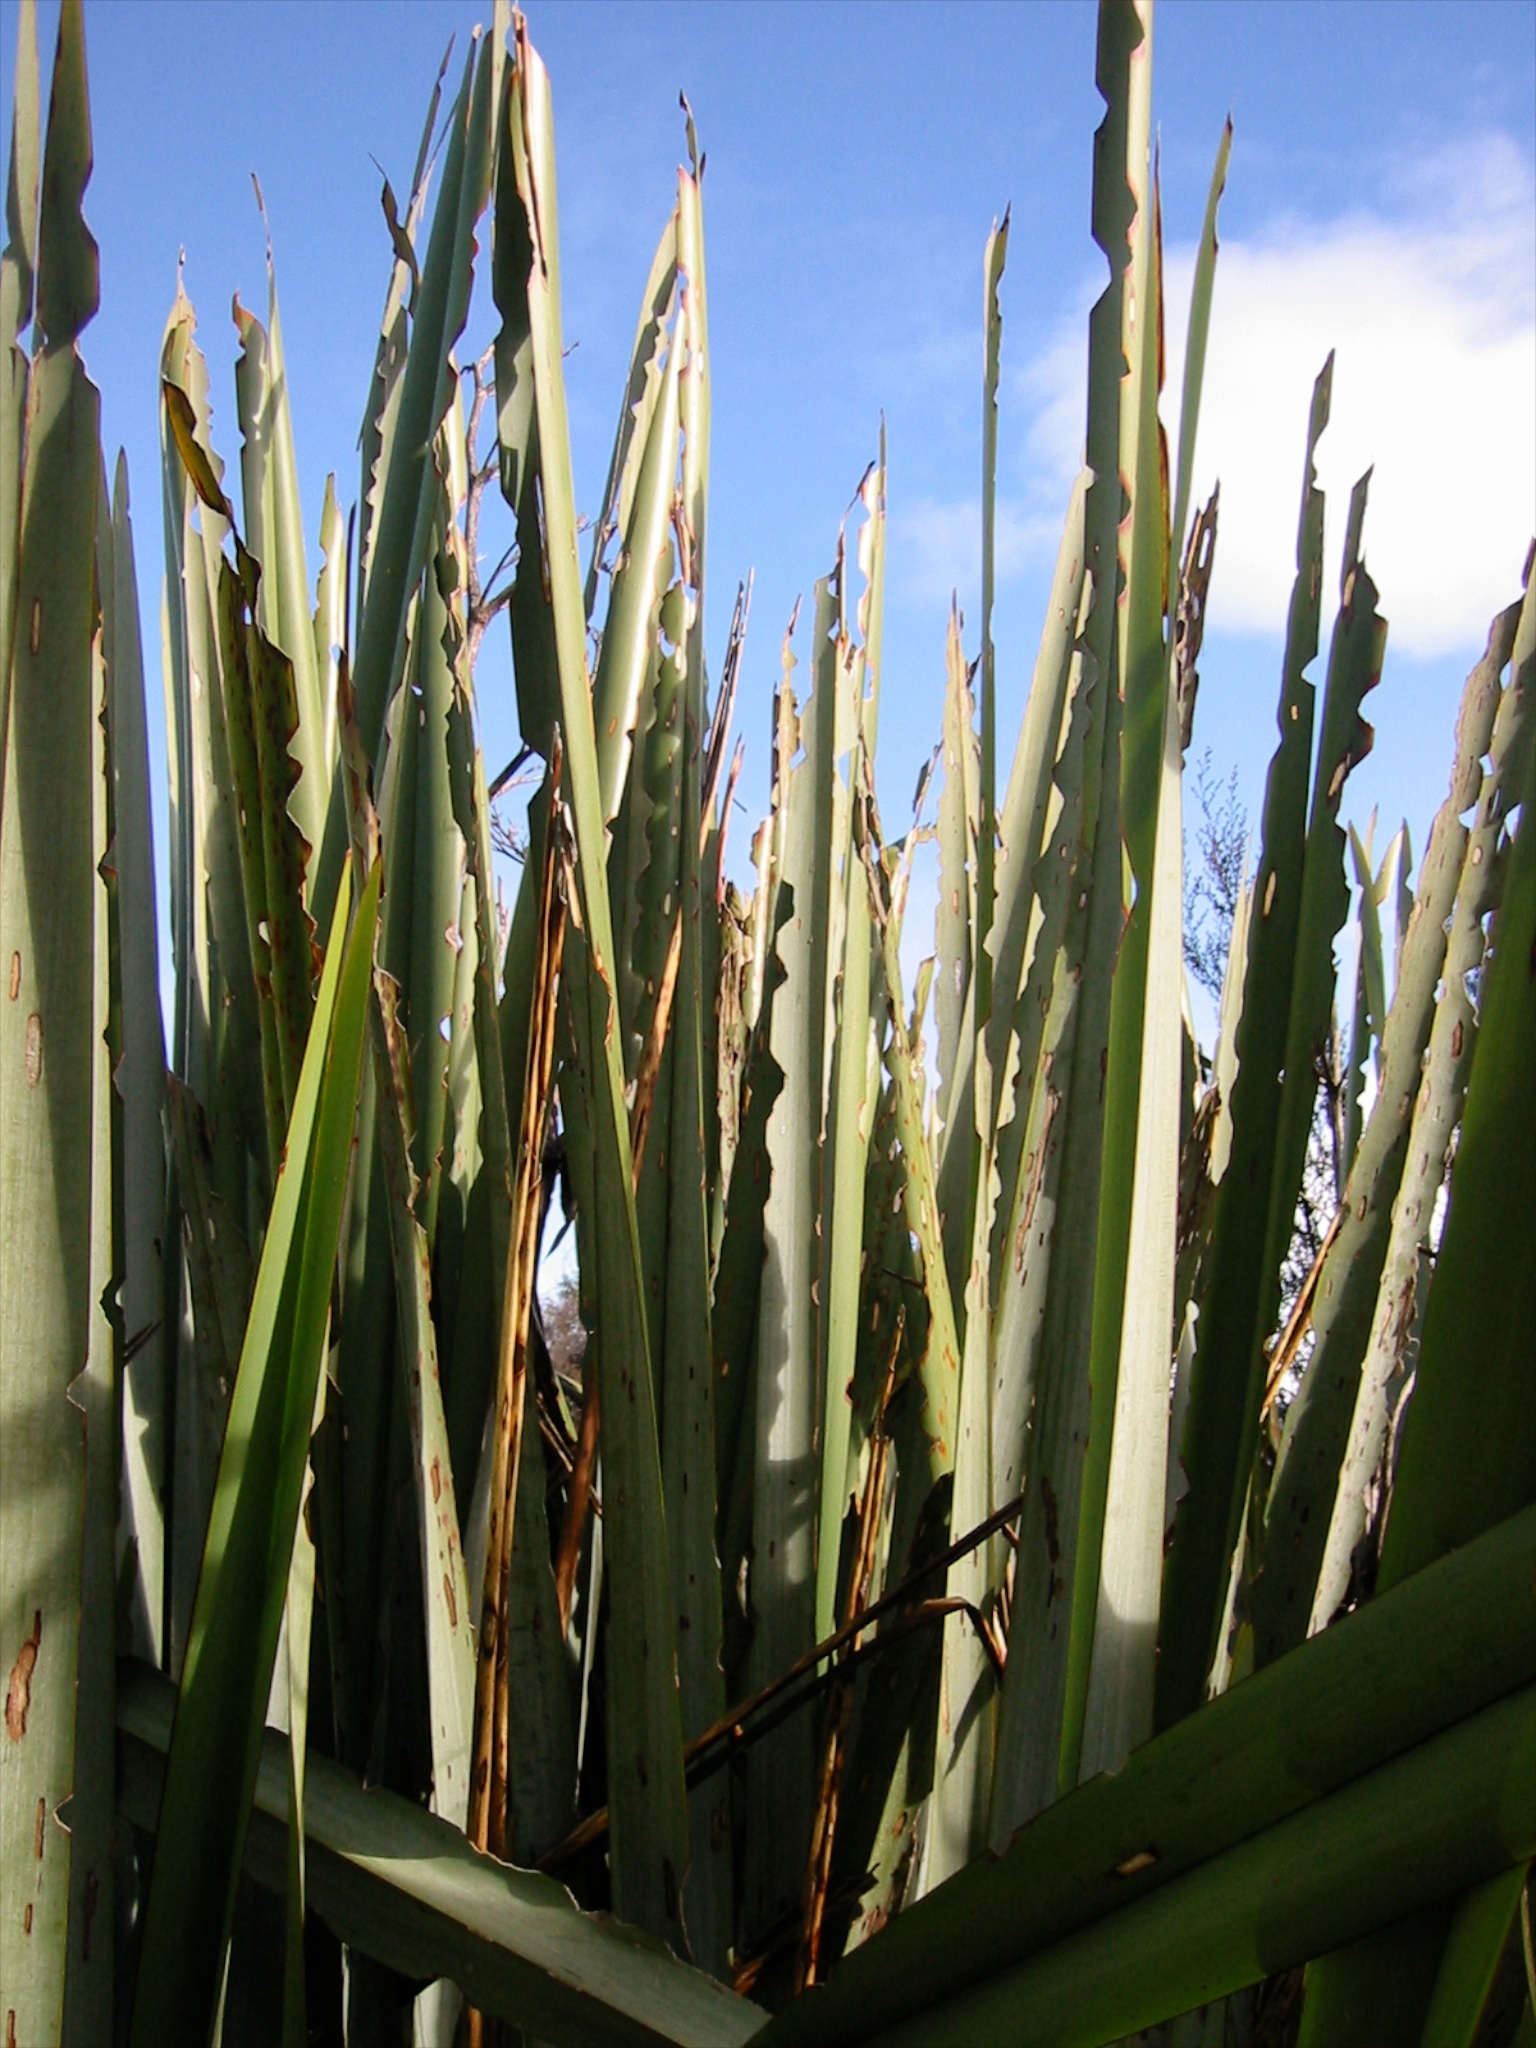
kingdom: Animalia
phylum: Arthropoda
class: Insecta
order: Lepidoptera
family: Geometridae
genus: Orthoclydon
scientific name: Orthoclydon praefectata
